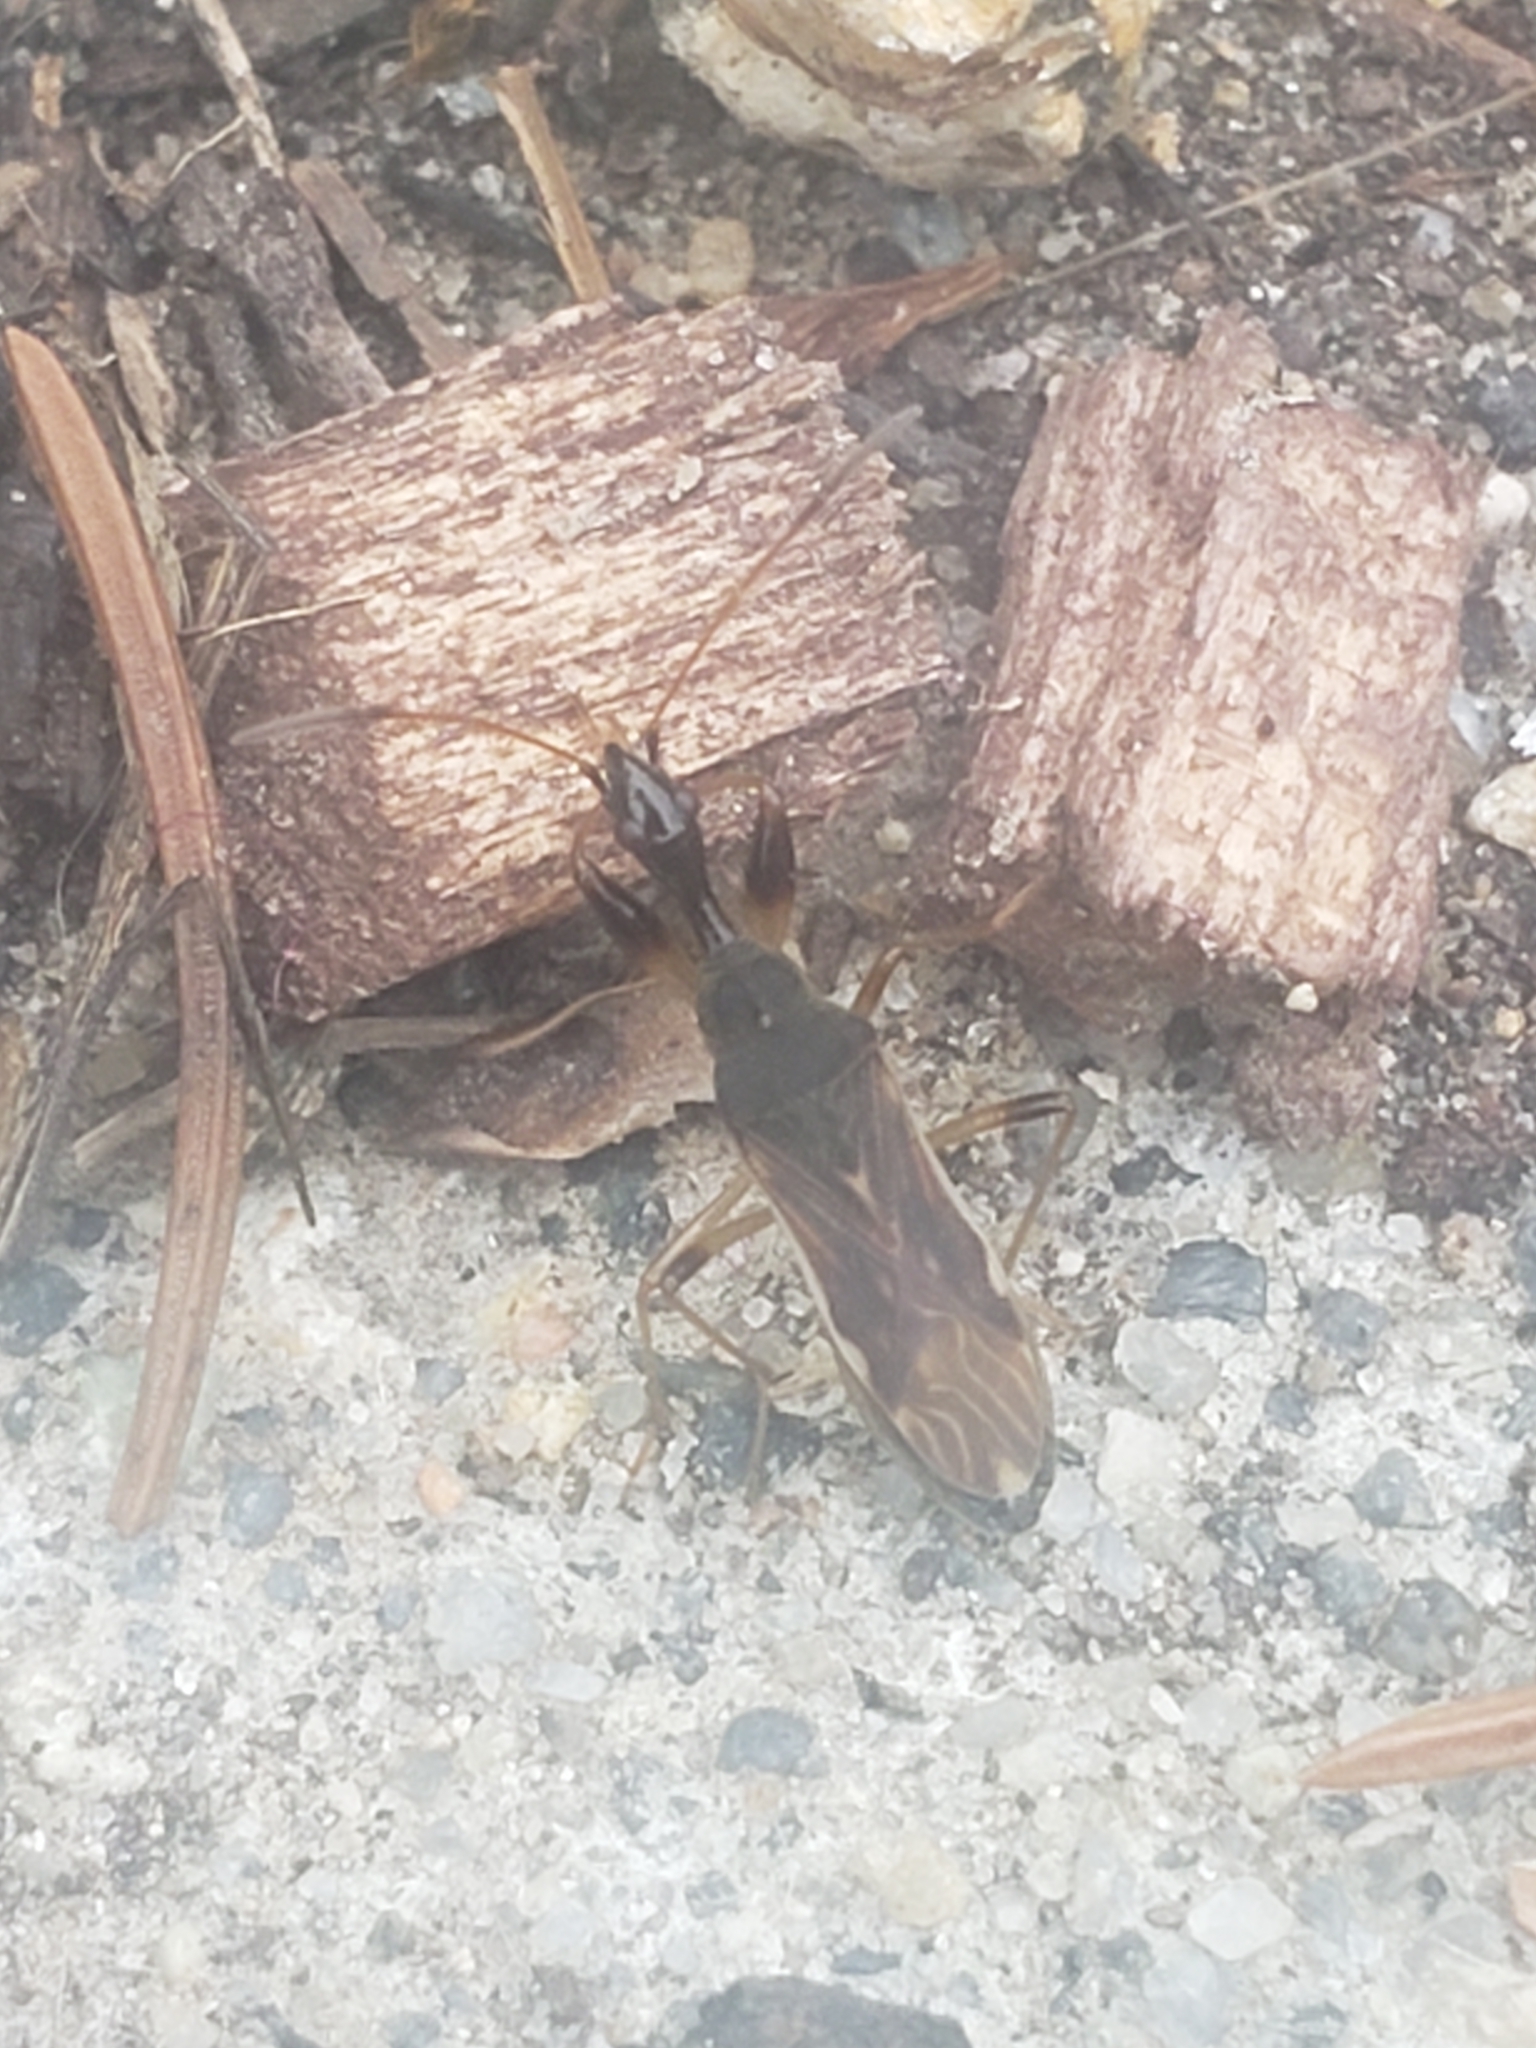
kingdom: Animalia
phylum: Arthropoda
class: Insecta
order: Hemiptera
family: Rhyparochromidae
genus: Myodocha
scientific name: Myodocha serripes
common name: Long-necked seed bug
